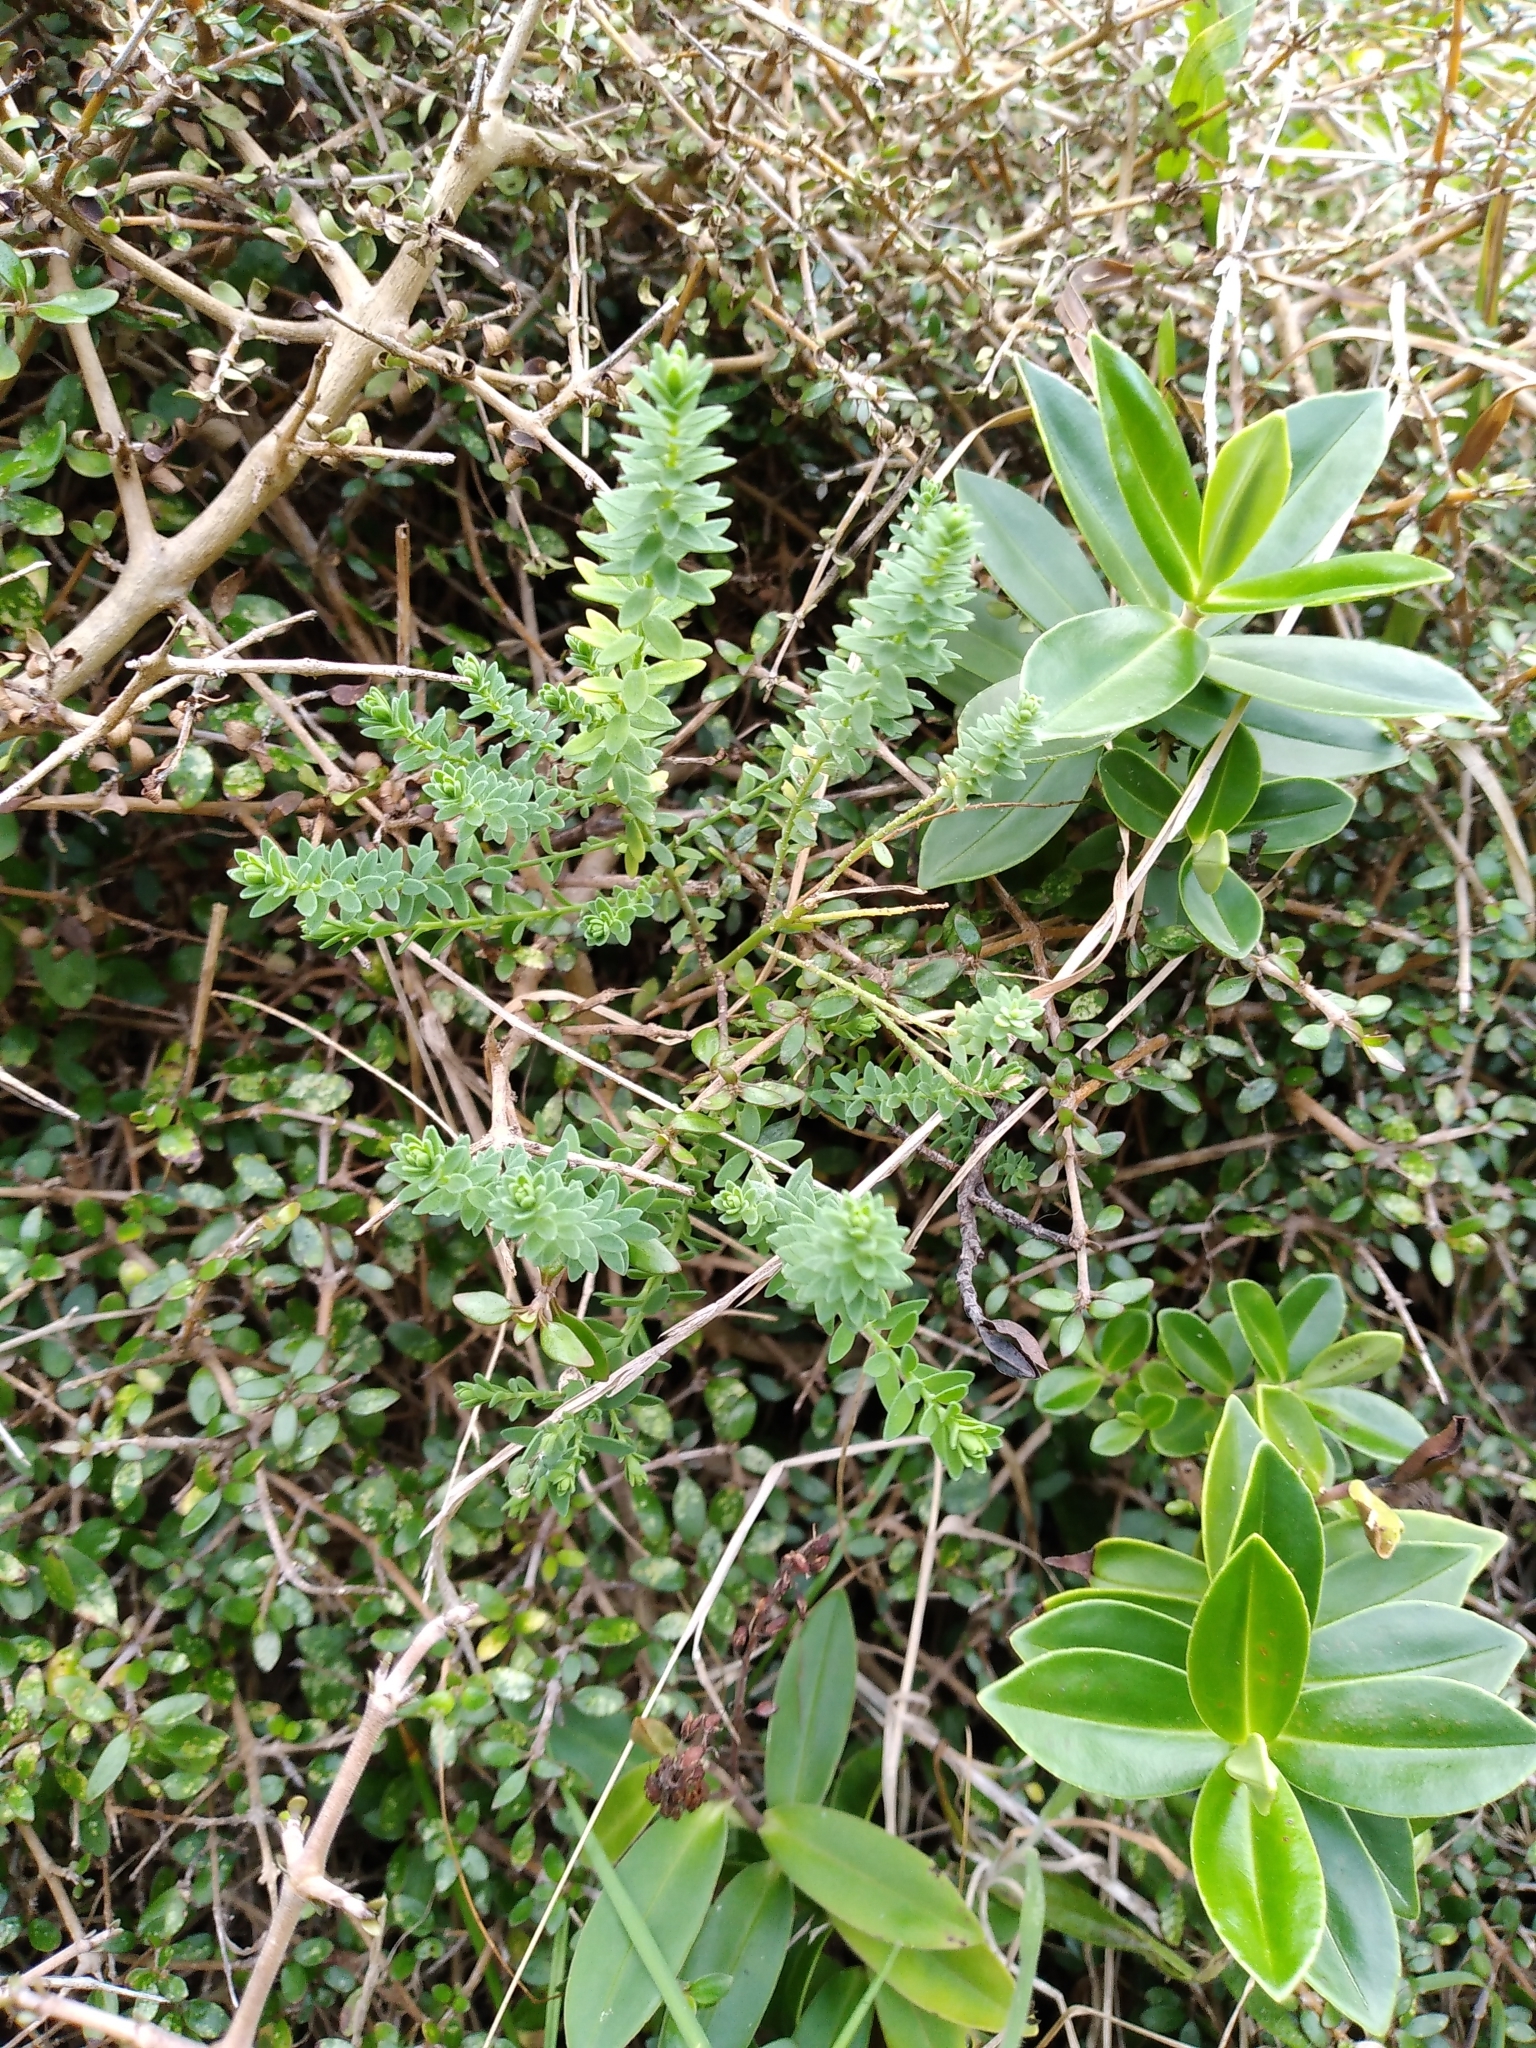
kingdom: Plantae
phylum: Tracheophyta
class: Magnoliopsida
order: Malpighiales
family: Linaceae
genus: Linum
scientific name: Linum monogynum
